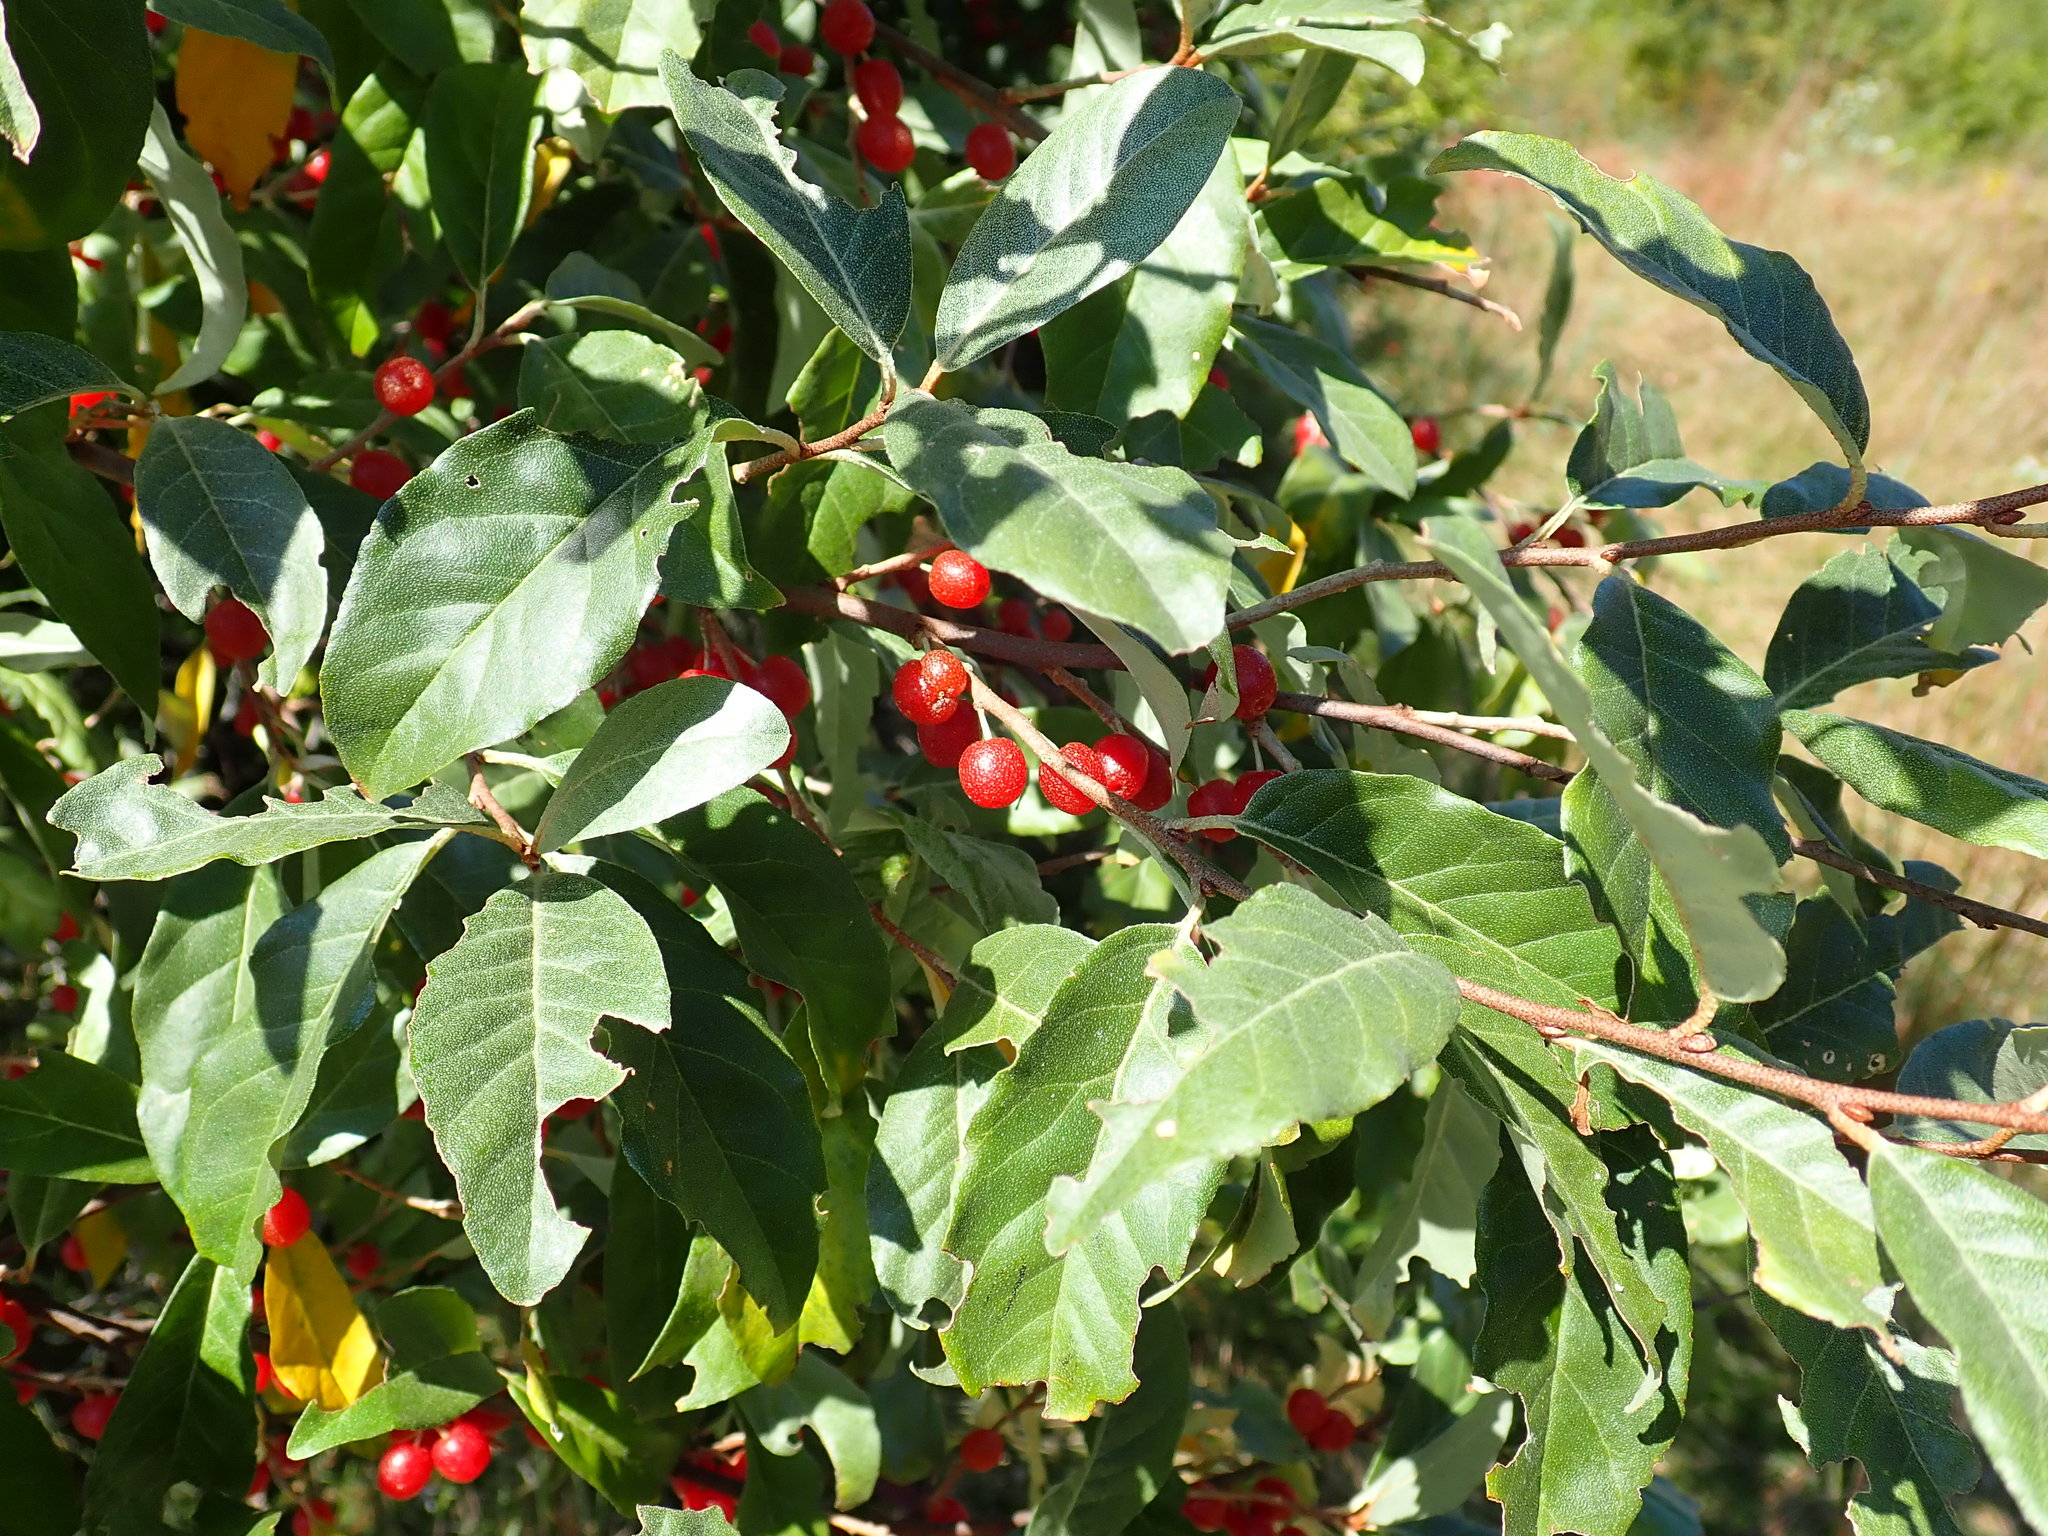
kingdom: Plantae
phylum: Tracheophyta
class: Magnoliopsida
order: Rosales
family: Elaeagnaceae
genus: Elaeagnus
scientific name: Elaeagnus umbellata
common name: Autumn olive
